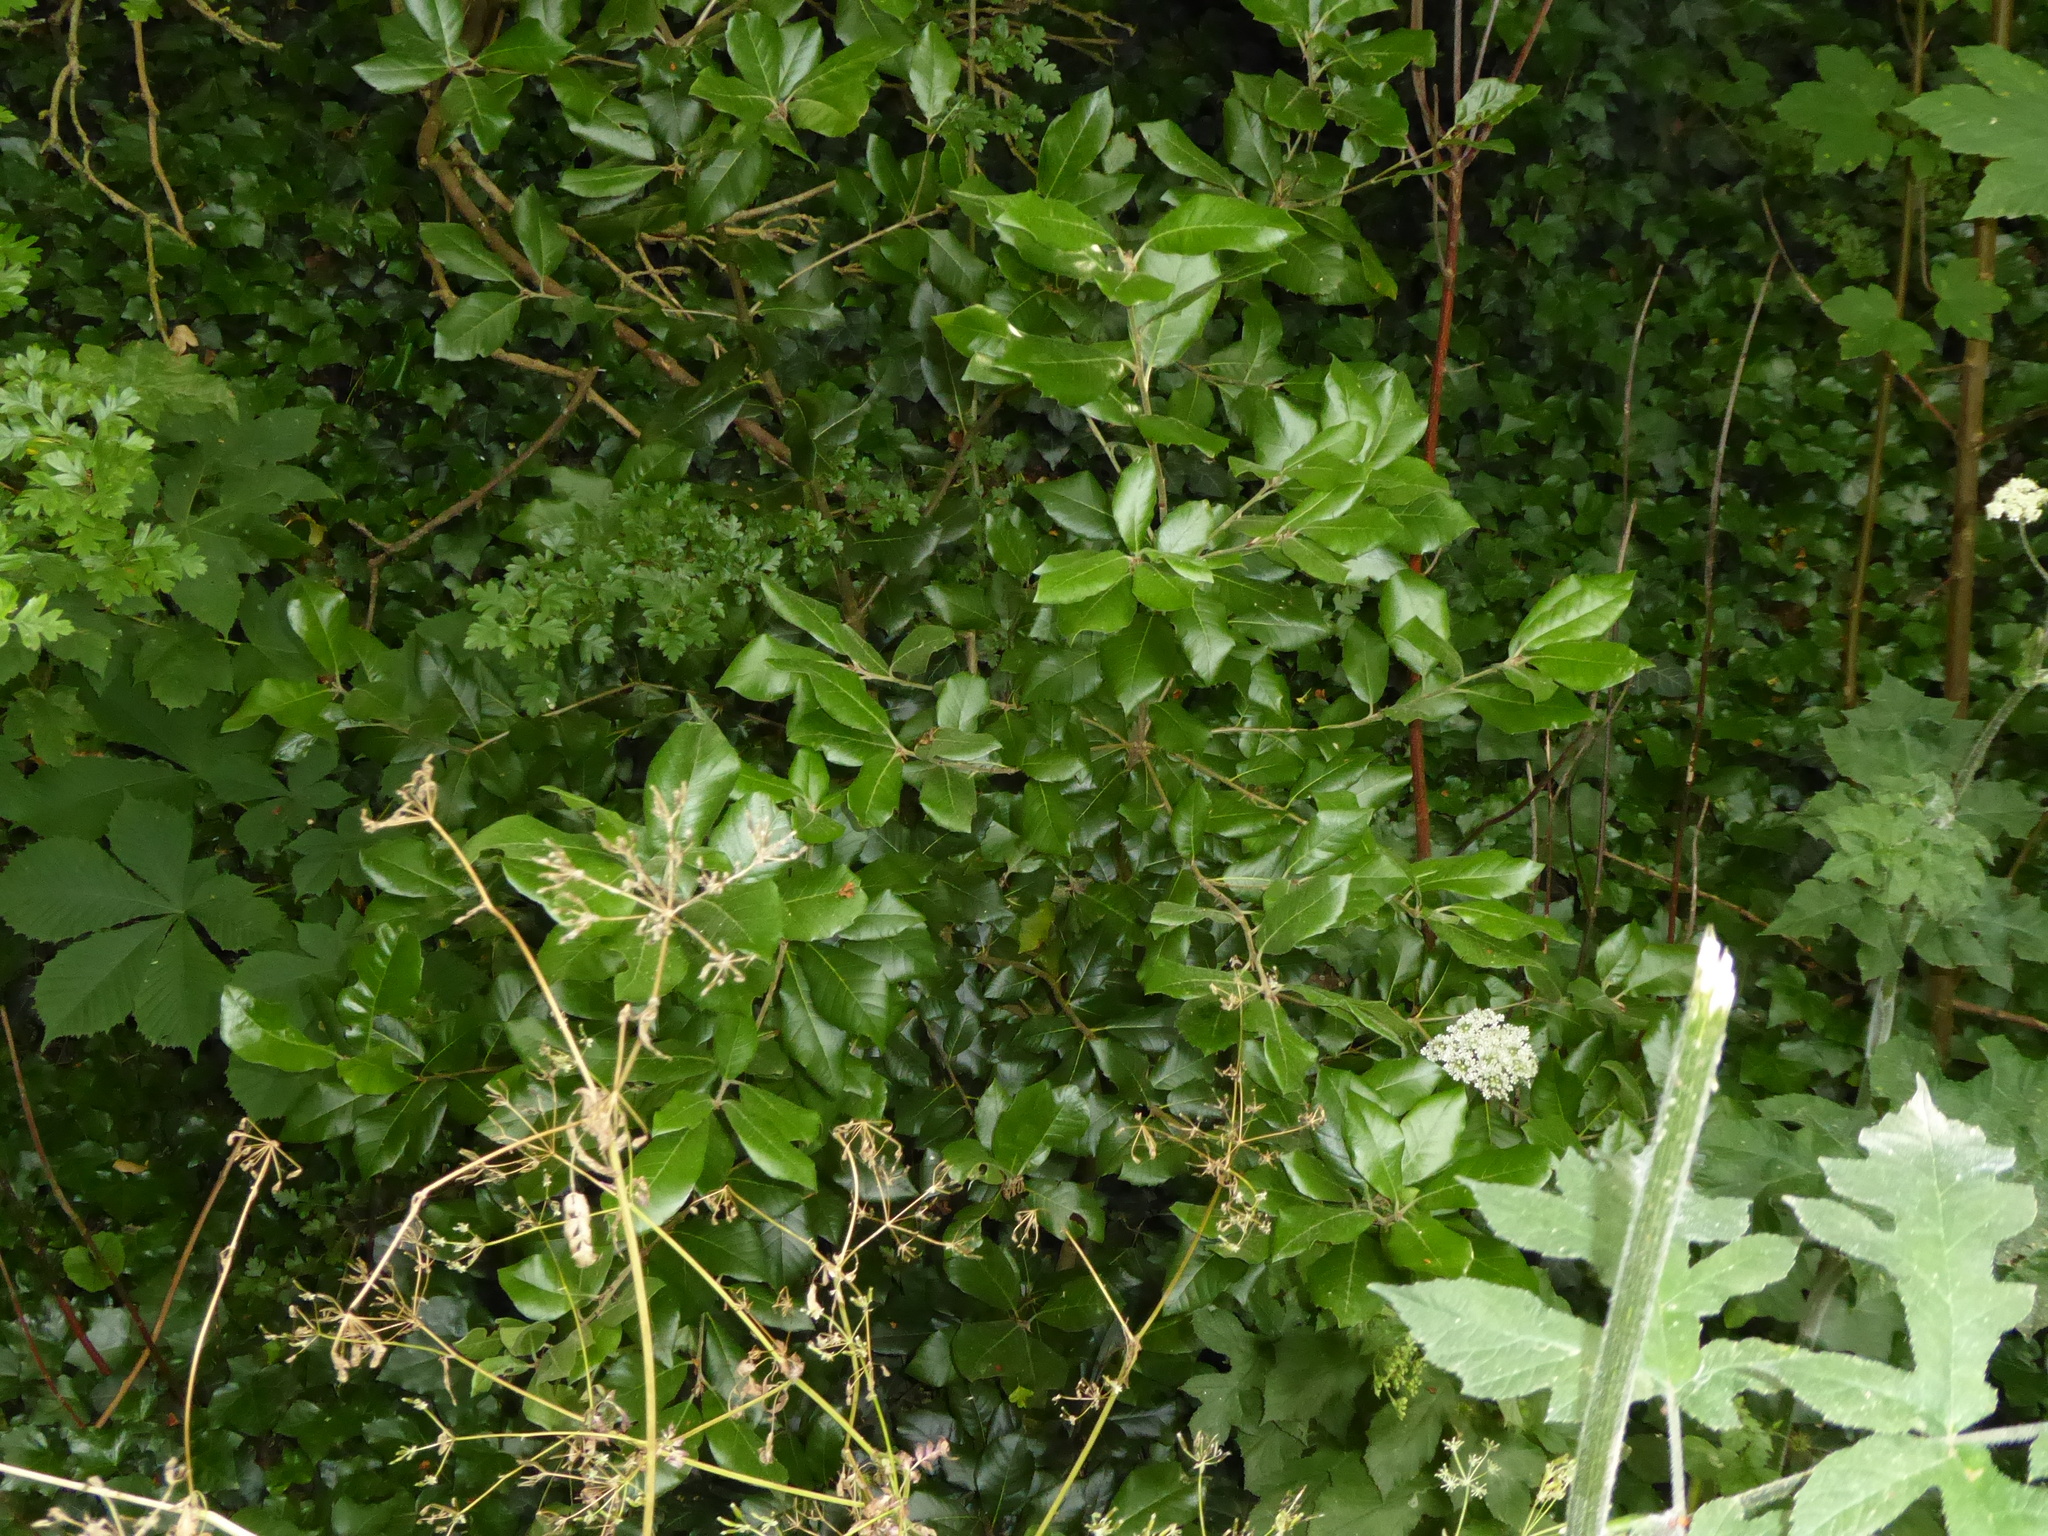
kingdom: Plantae
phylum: Tracheophyta
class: Magnoliopsida
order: Fagales
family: Fagaceae
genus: Quercus
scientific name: Quercus ilex
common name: Evergreen oak
